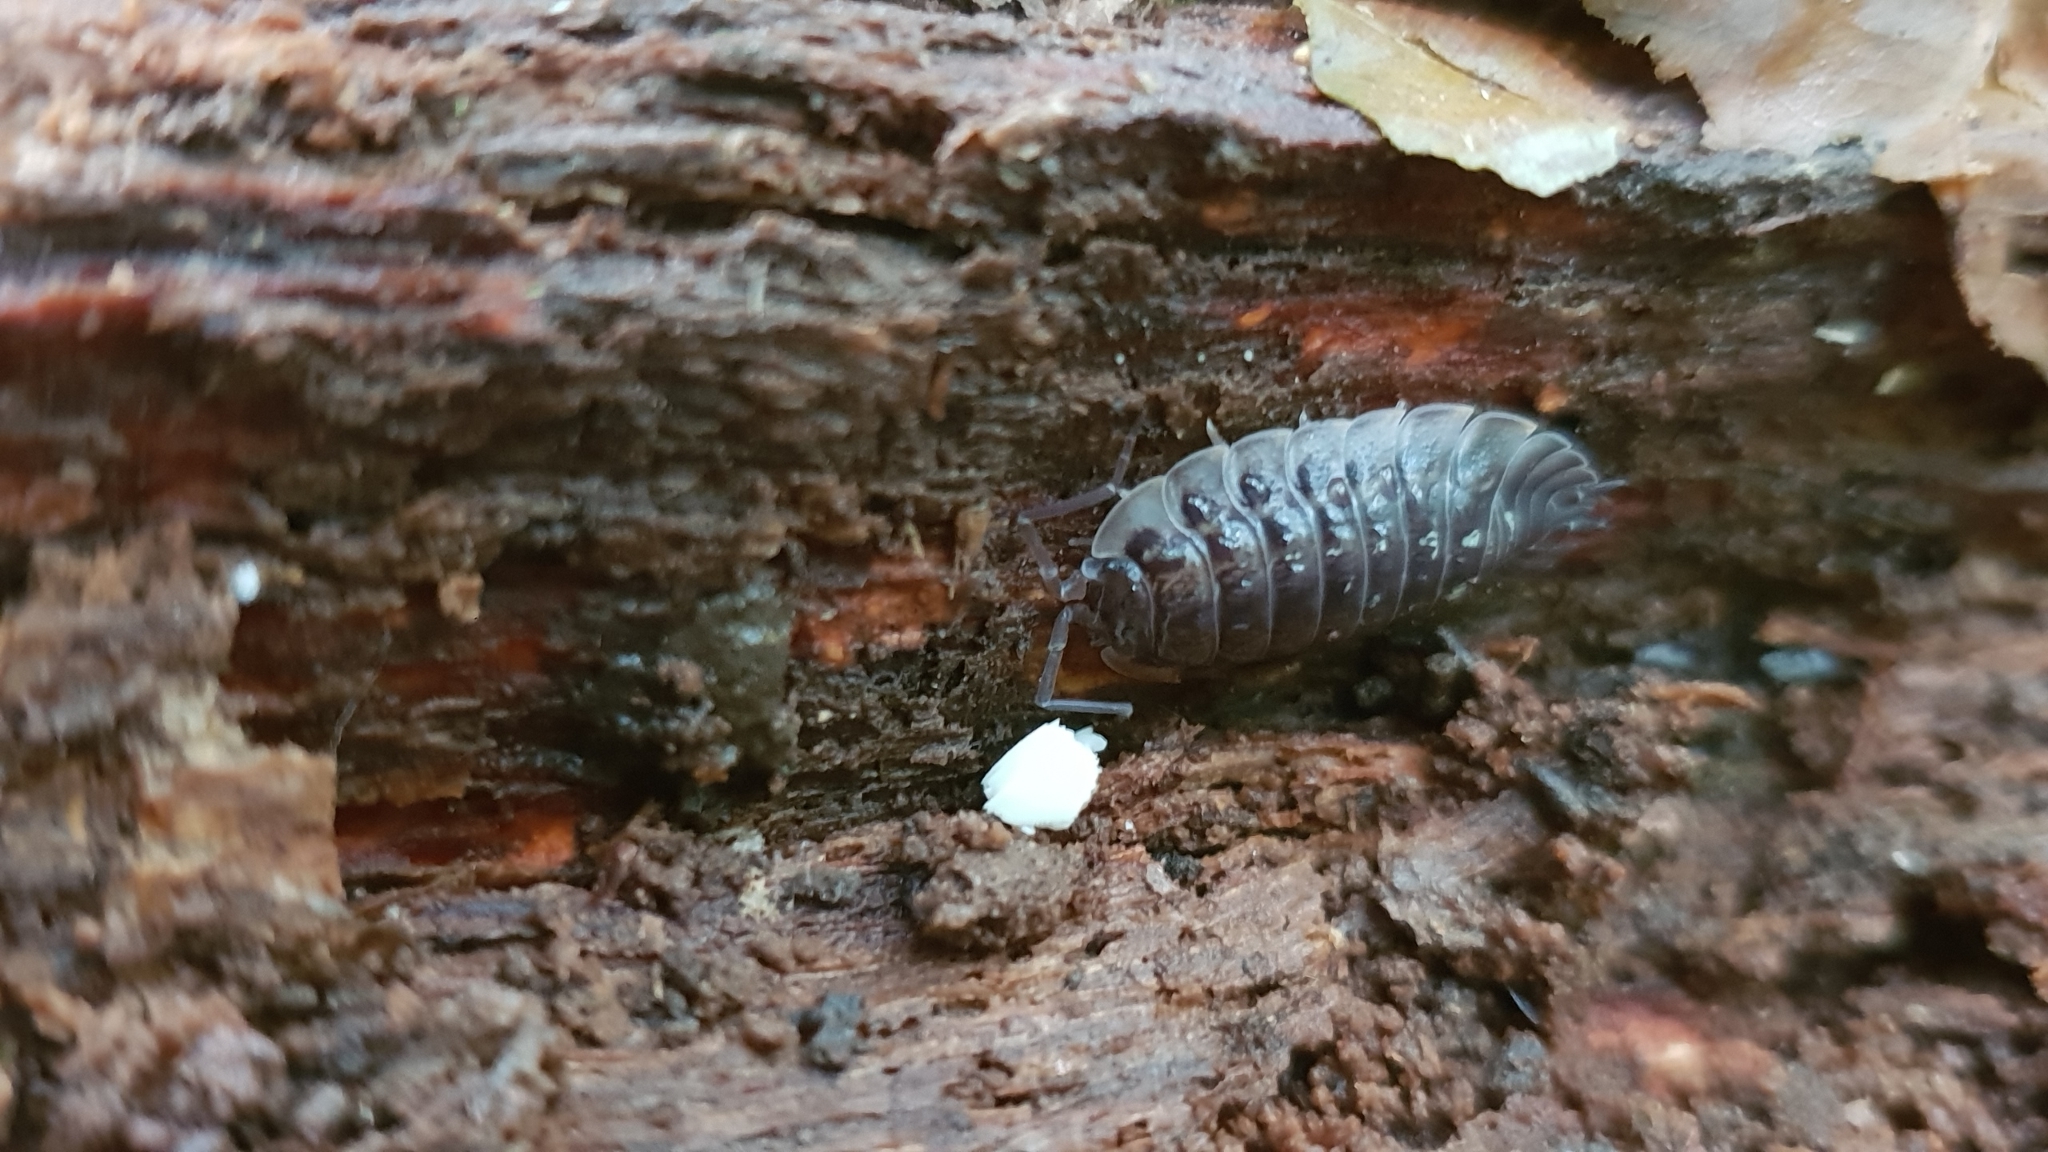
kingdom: Animalia
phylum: Arthropoda
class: Malacostraca
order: Isopoda
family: Oniscidae
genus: Oniscus
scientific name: Oniscus asellus
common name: Common shiny woodlouse
